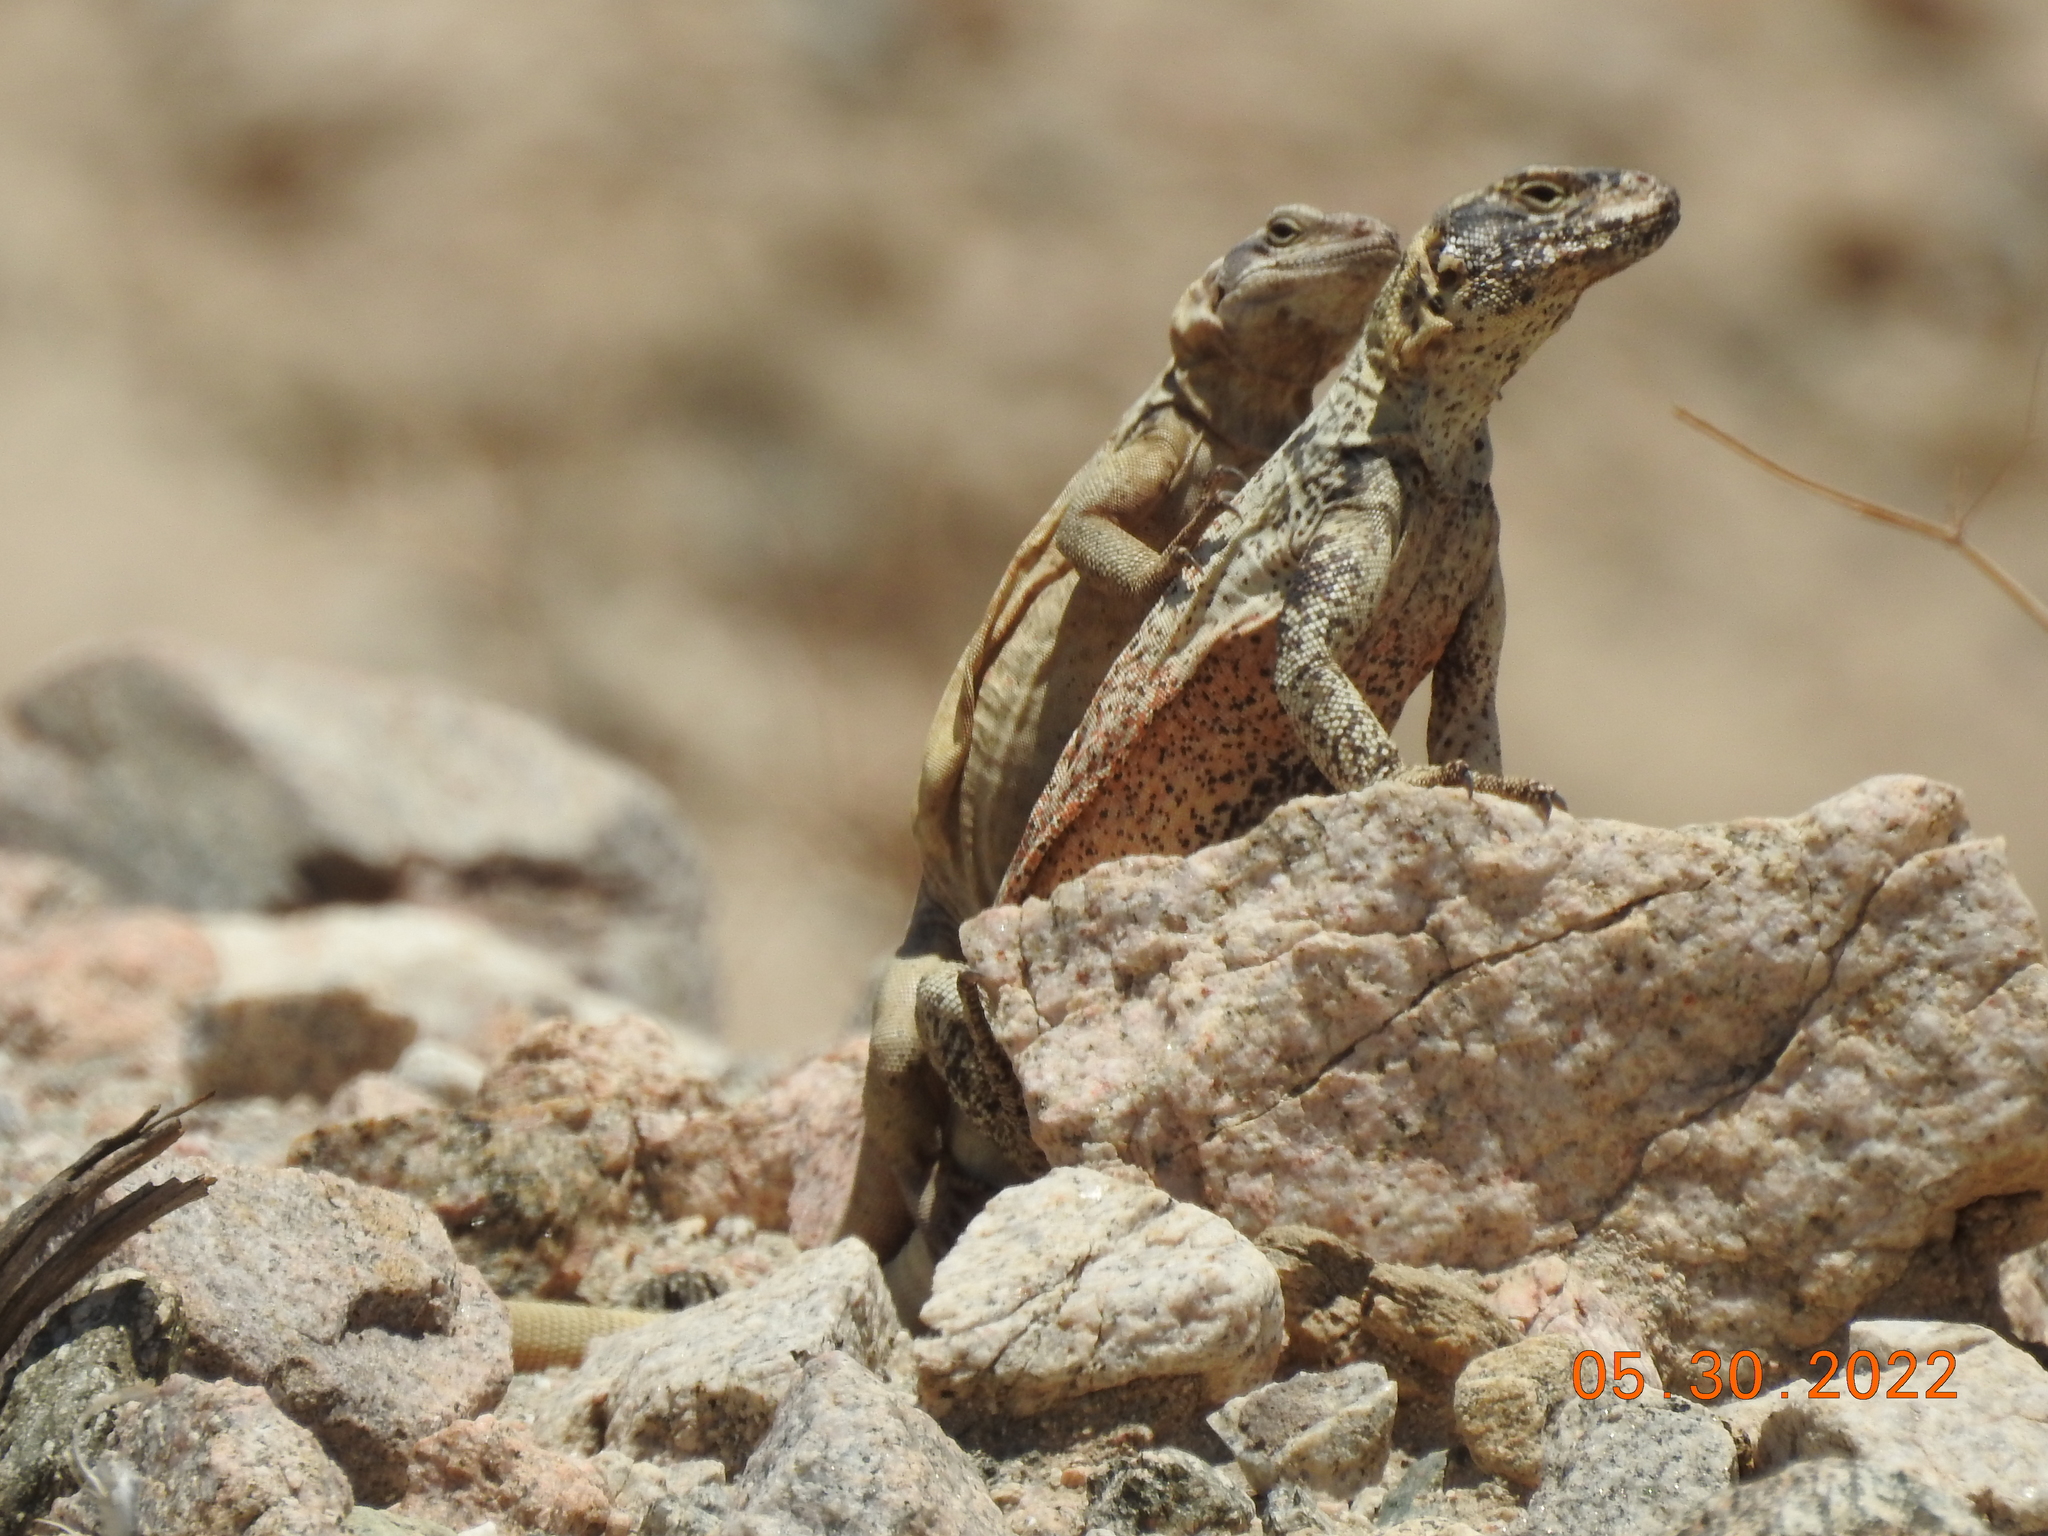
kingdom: Animalia
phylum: Chordata
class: Squamata
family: Iguanidae
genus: Sauromalus
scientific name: Sauromalus ater
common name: Northern chuckwalla
